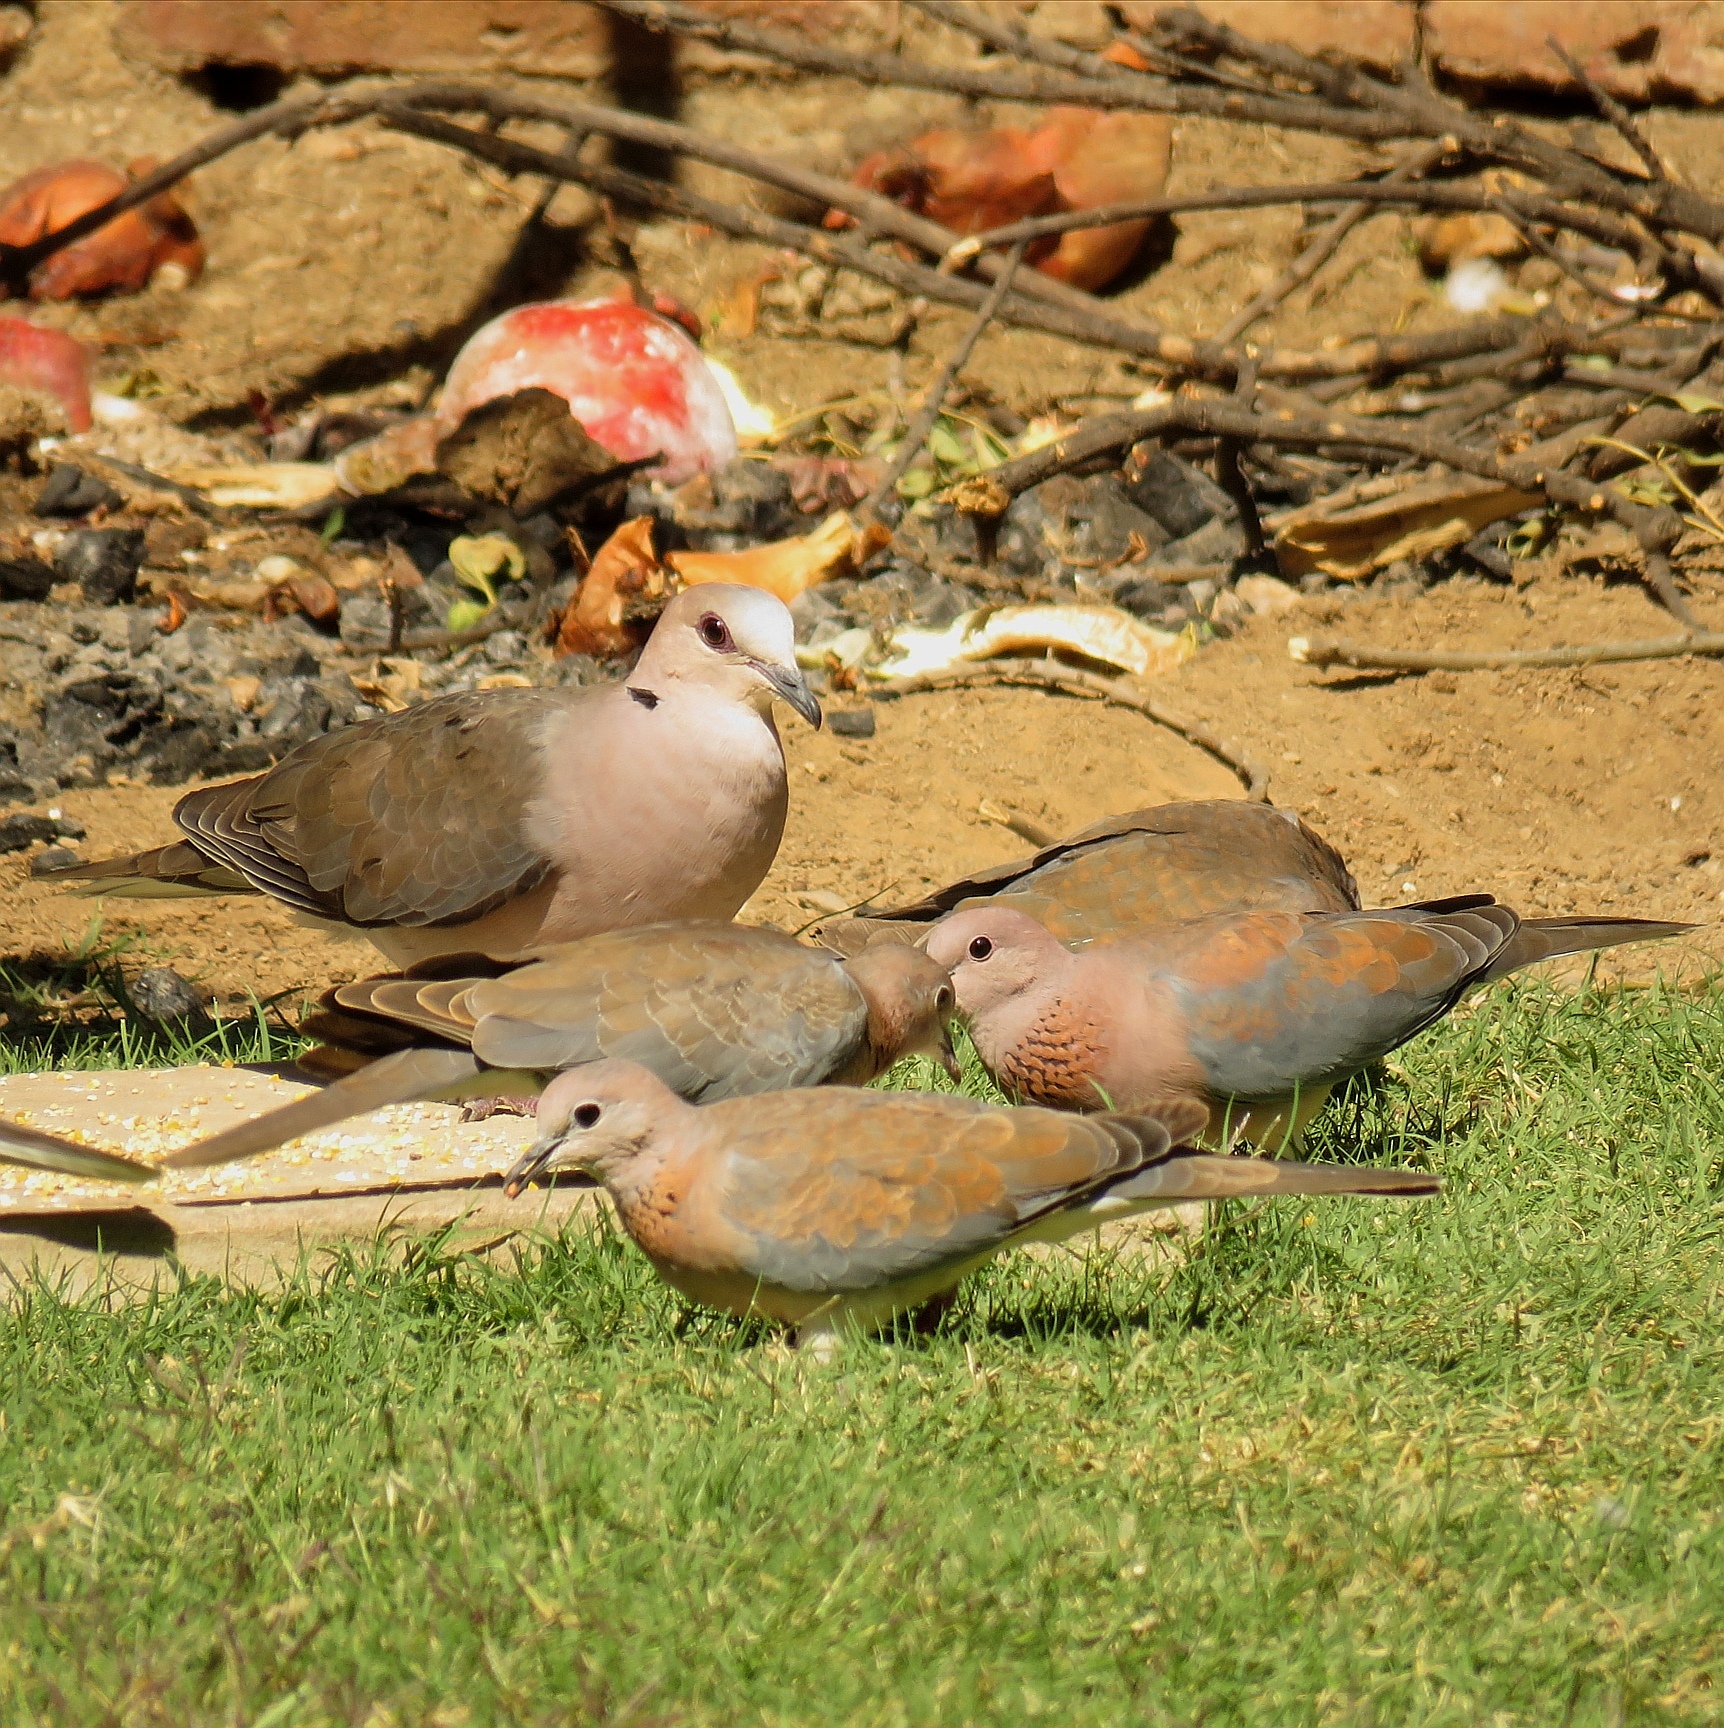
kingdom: Animalia
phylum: Chordata
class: Aves
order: Columbiformes
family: Columbidae
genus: Streptopelia
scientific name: Streptopelia semitorquata
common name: Red-eyed dove
